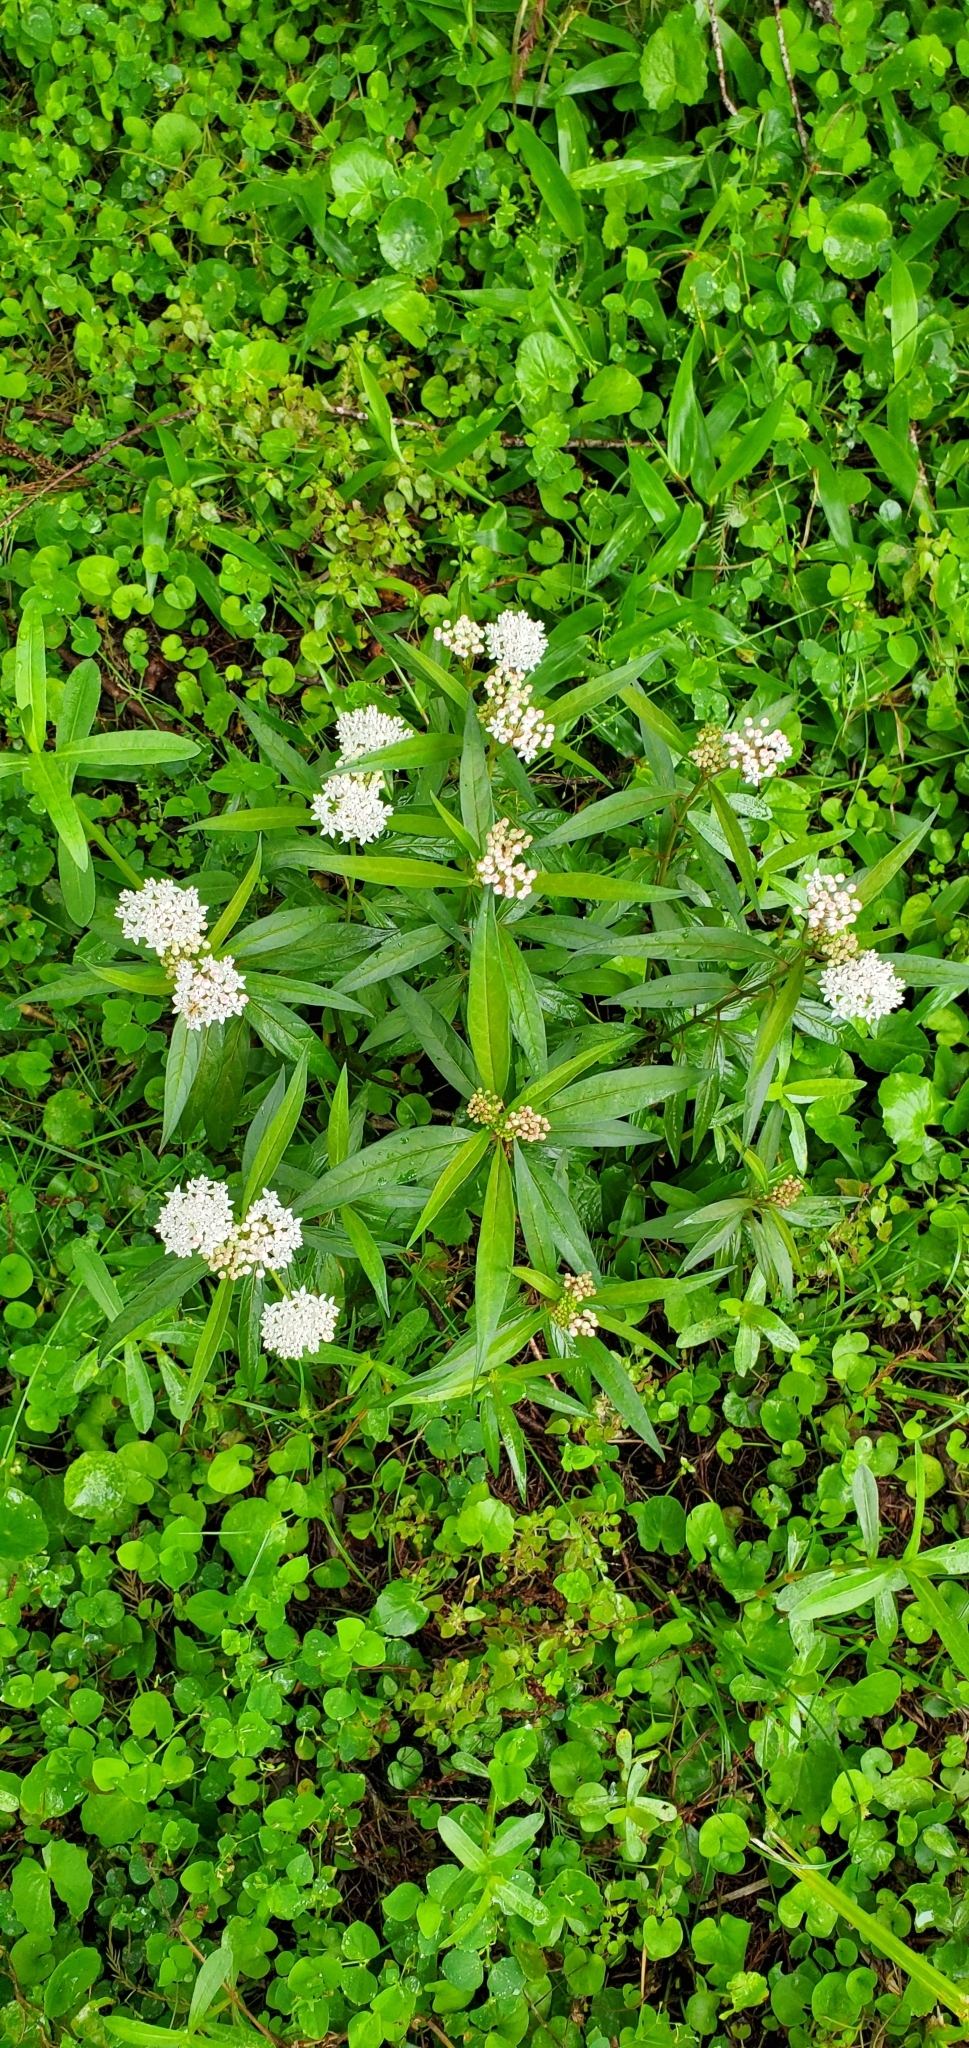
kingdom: Plantae
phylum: Tracheophyta
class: Magnoliopsida
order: Gentianales
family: Apocynaceae
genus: Asclepias
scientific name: Asclepias perennis
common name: Smooth-seed milkweed
